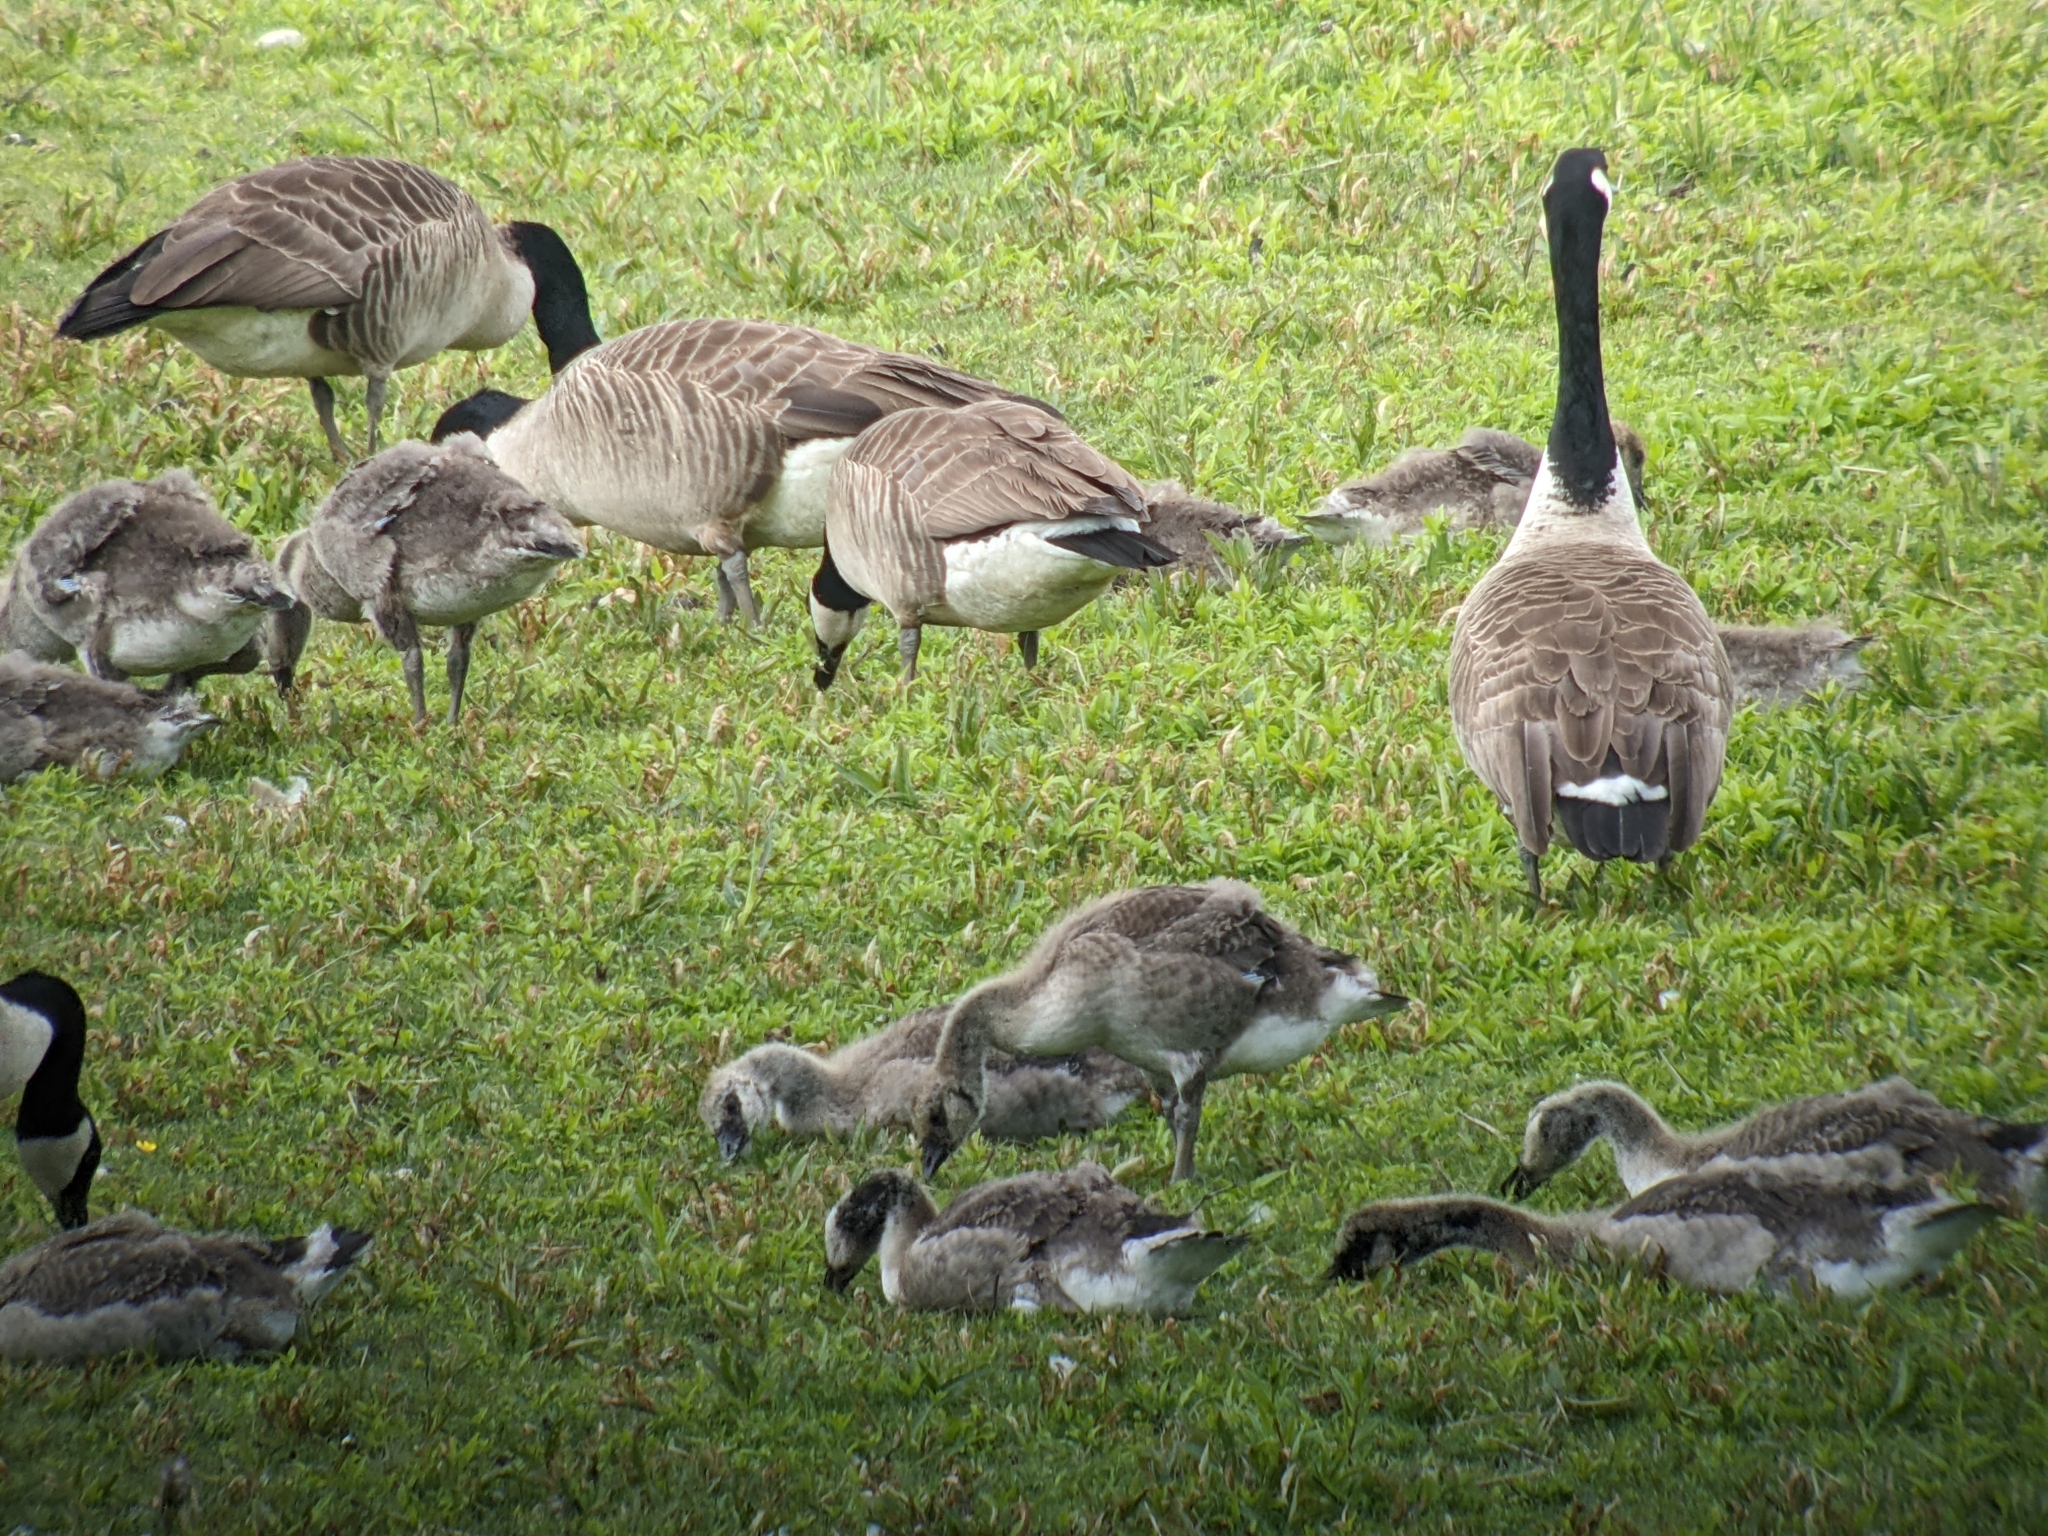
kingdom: Animalia
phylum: Chordata
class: Aves
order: Anseriformes
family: Anatidae
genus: Branta
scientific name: Branta canadensis
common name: Canada goose
